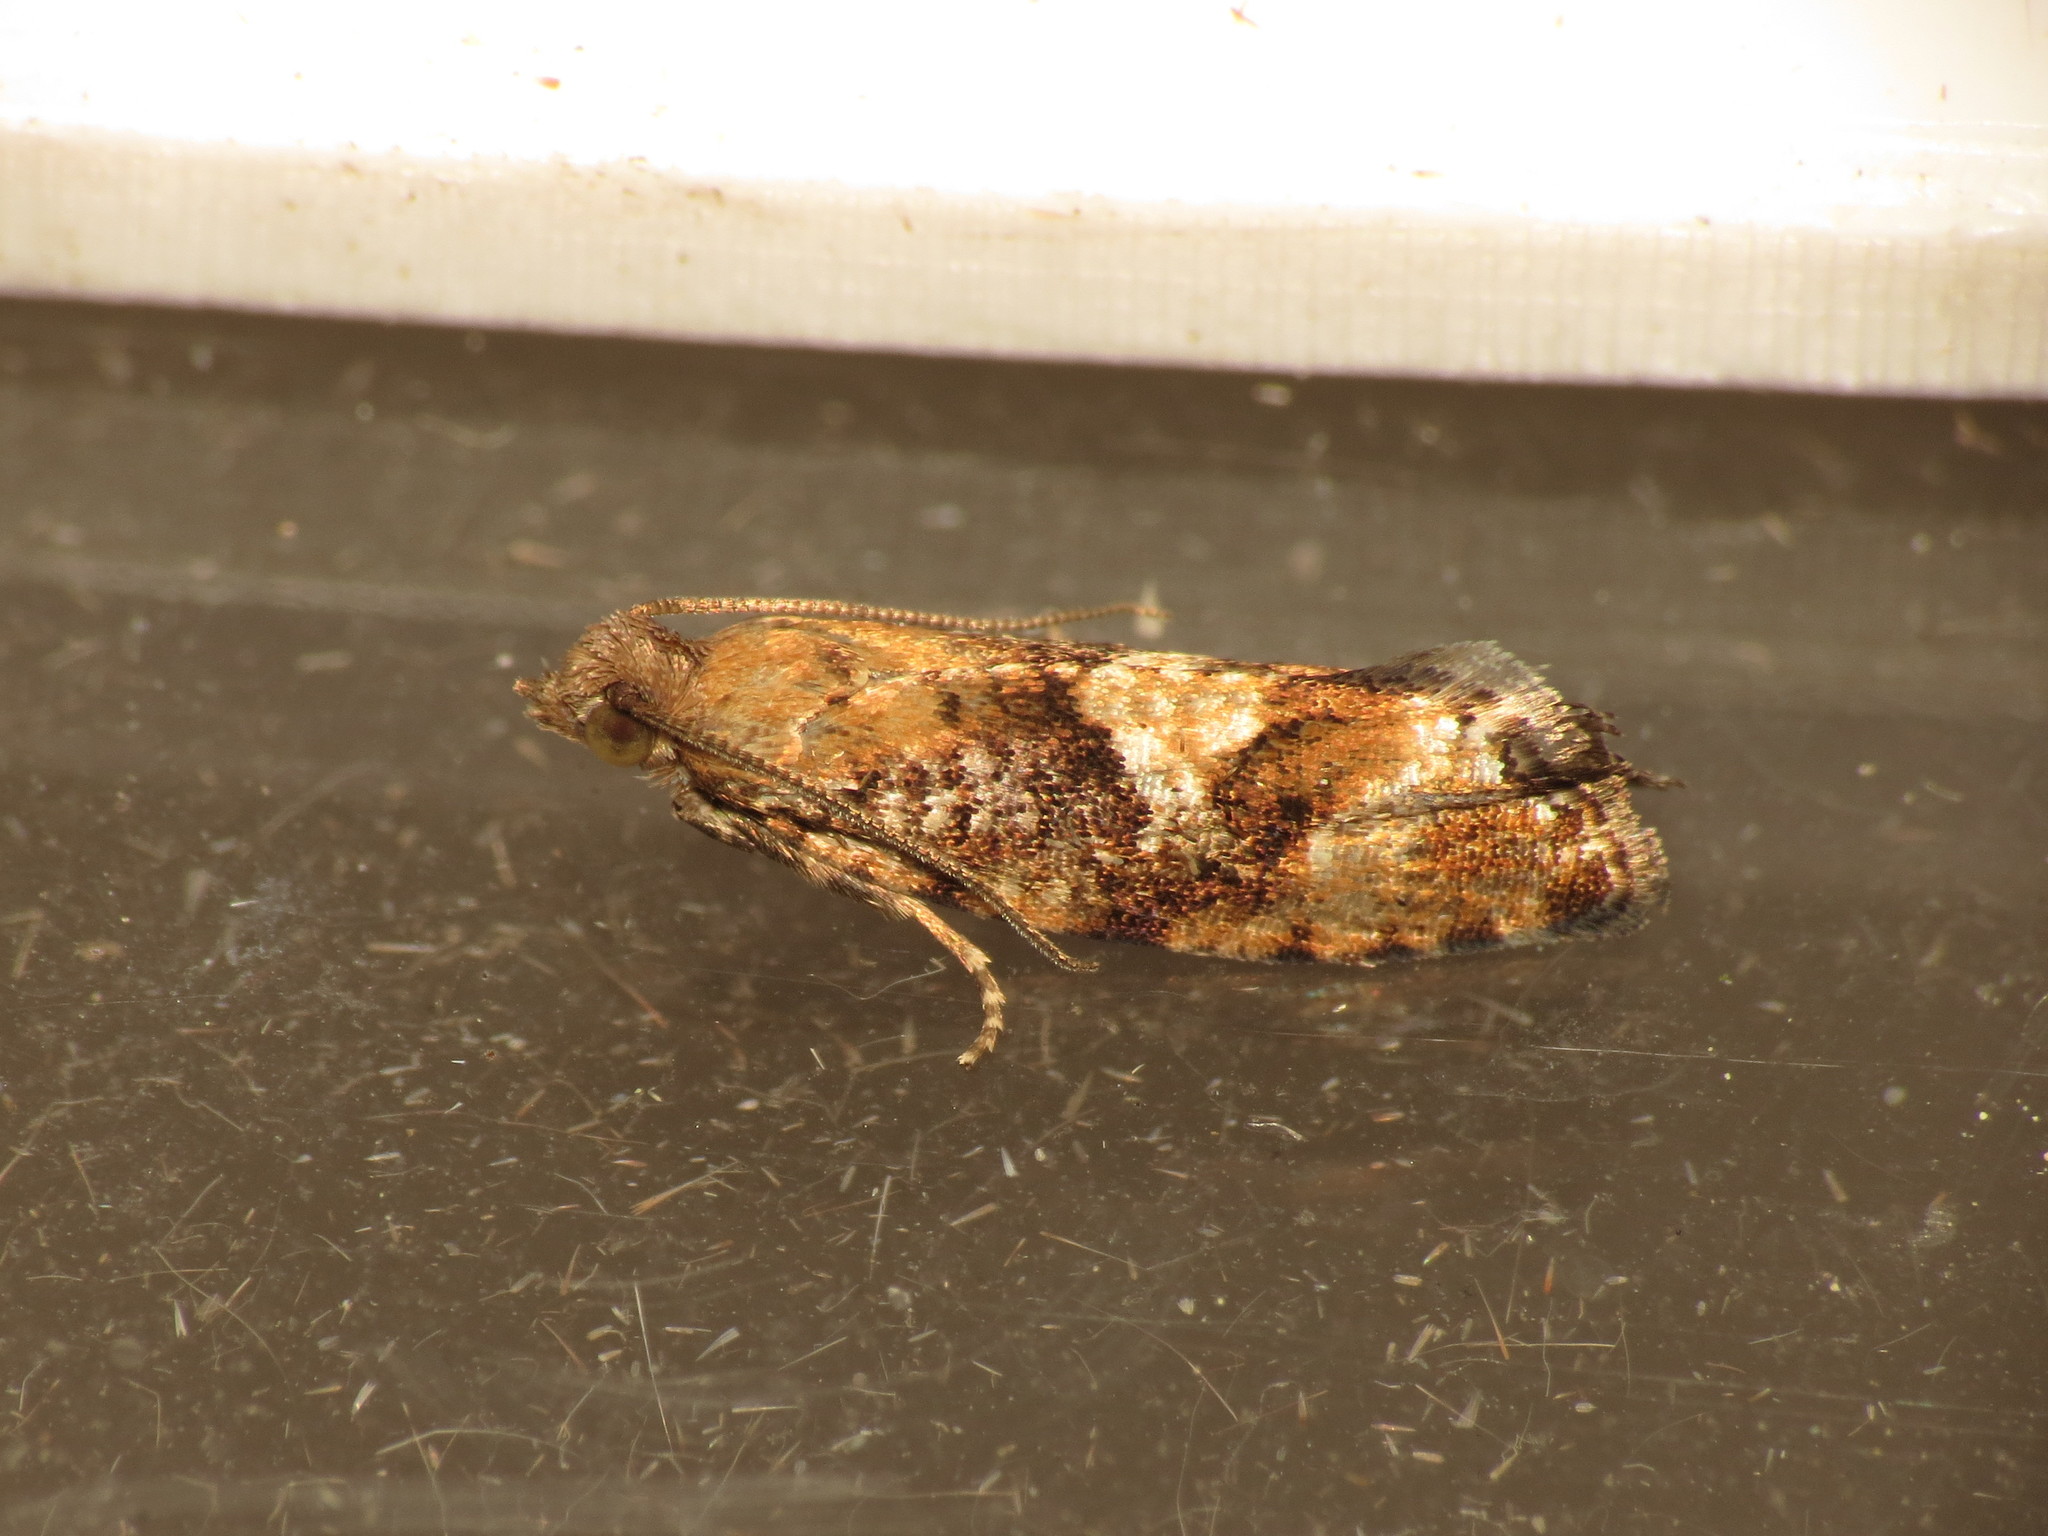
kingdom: Animalia
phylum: Arthropoda
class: Insecta
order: Lepidoptera
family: Tortricidae
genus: Zeiraphera
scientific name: Zeiraphera ratzeburgiana
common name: Spruce-bud moth
